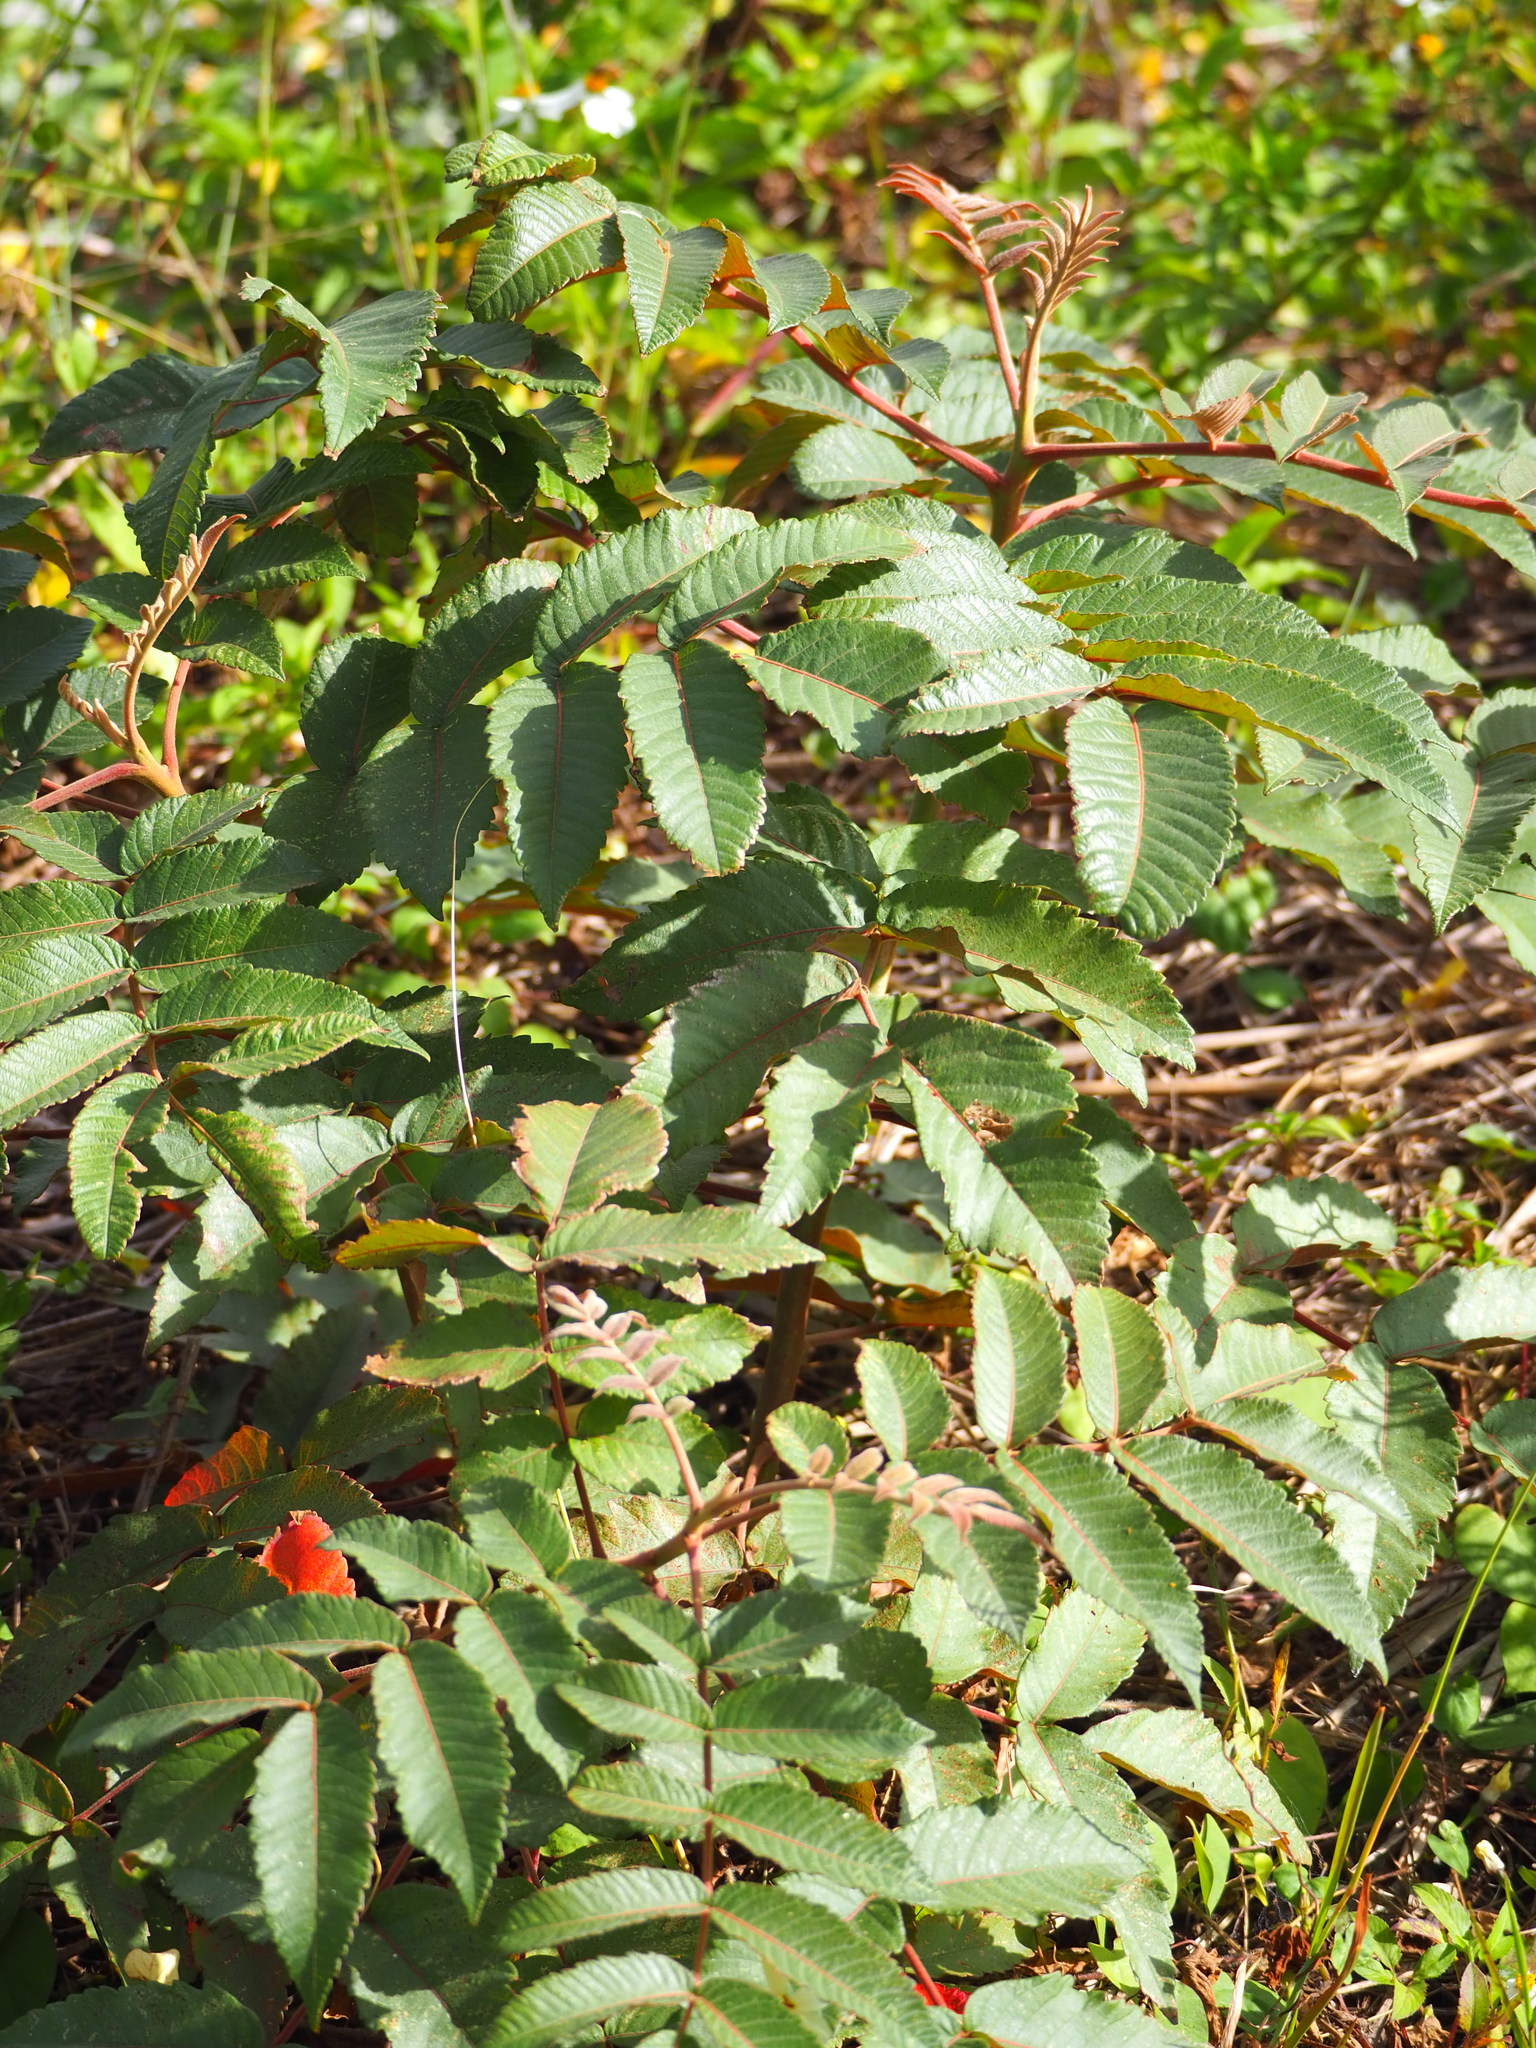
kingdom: Plantae
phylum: Tracheophyta
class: Magnoliopsida
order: Sapindales
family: Anacardiaceae
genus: Rhus
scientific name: Rhus chinensis
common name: Chinese gall
